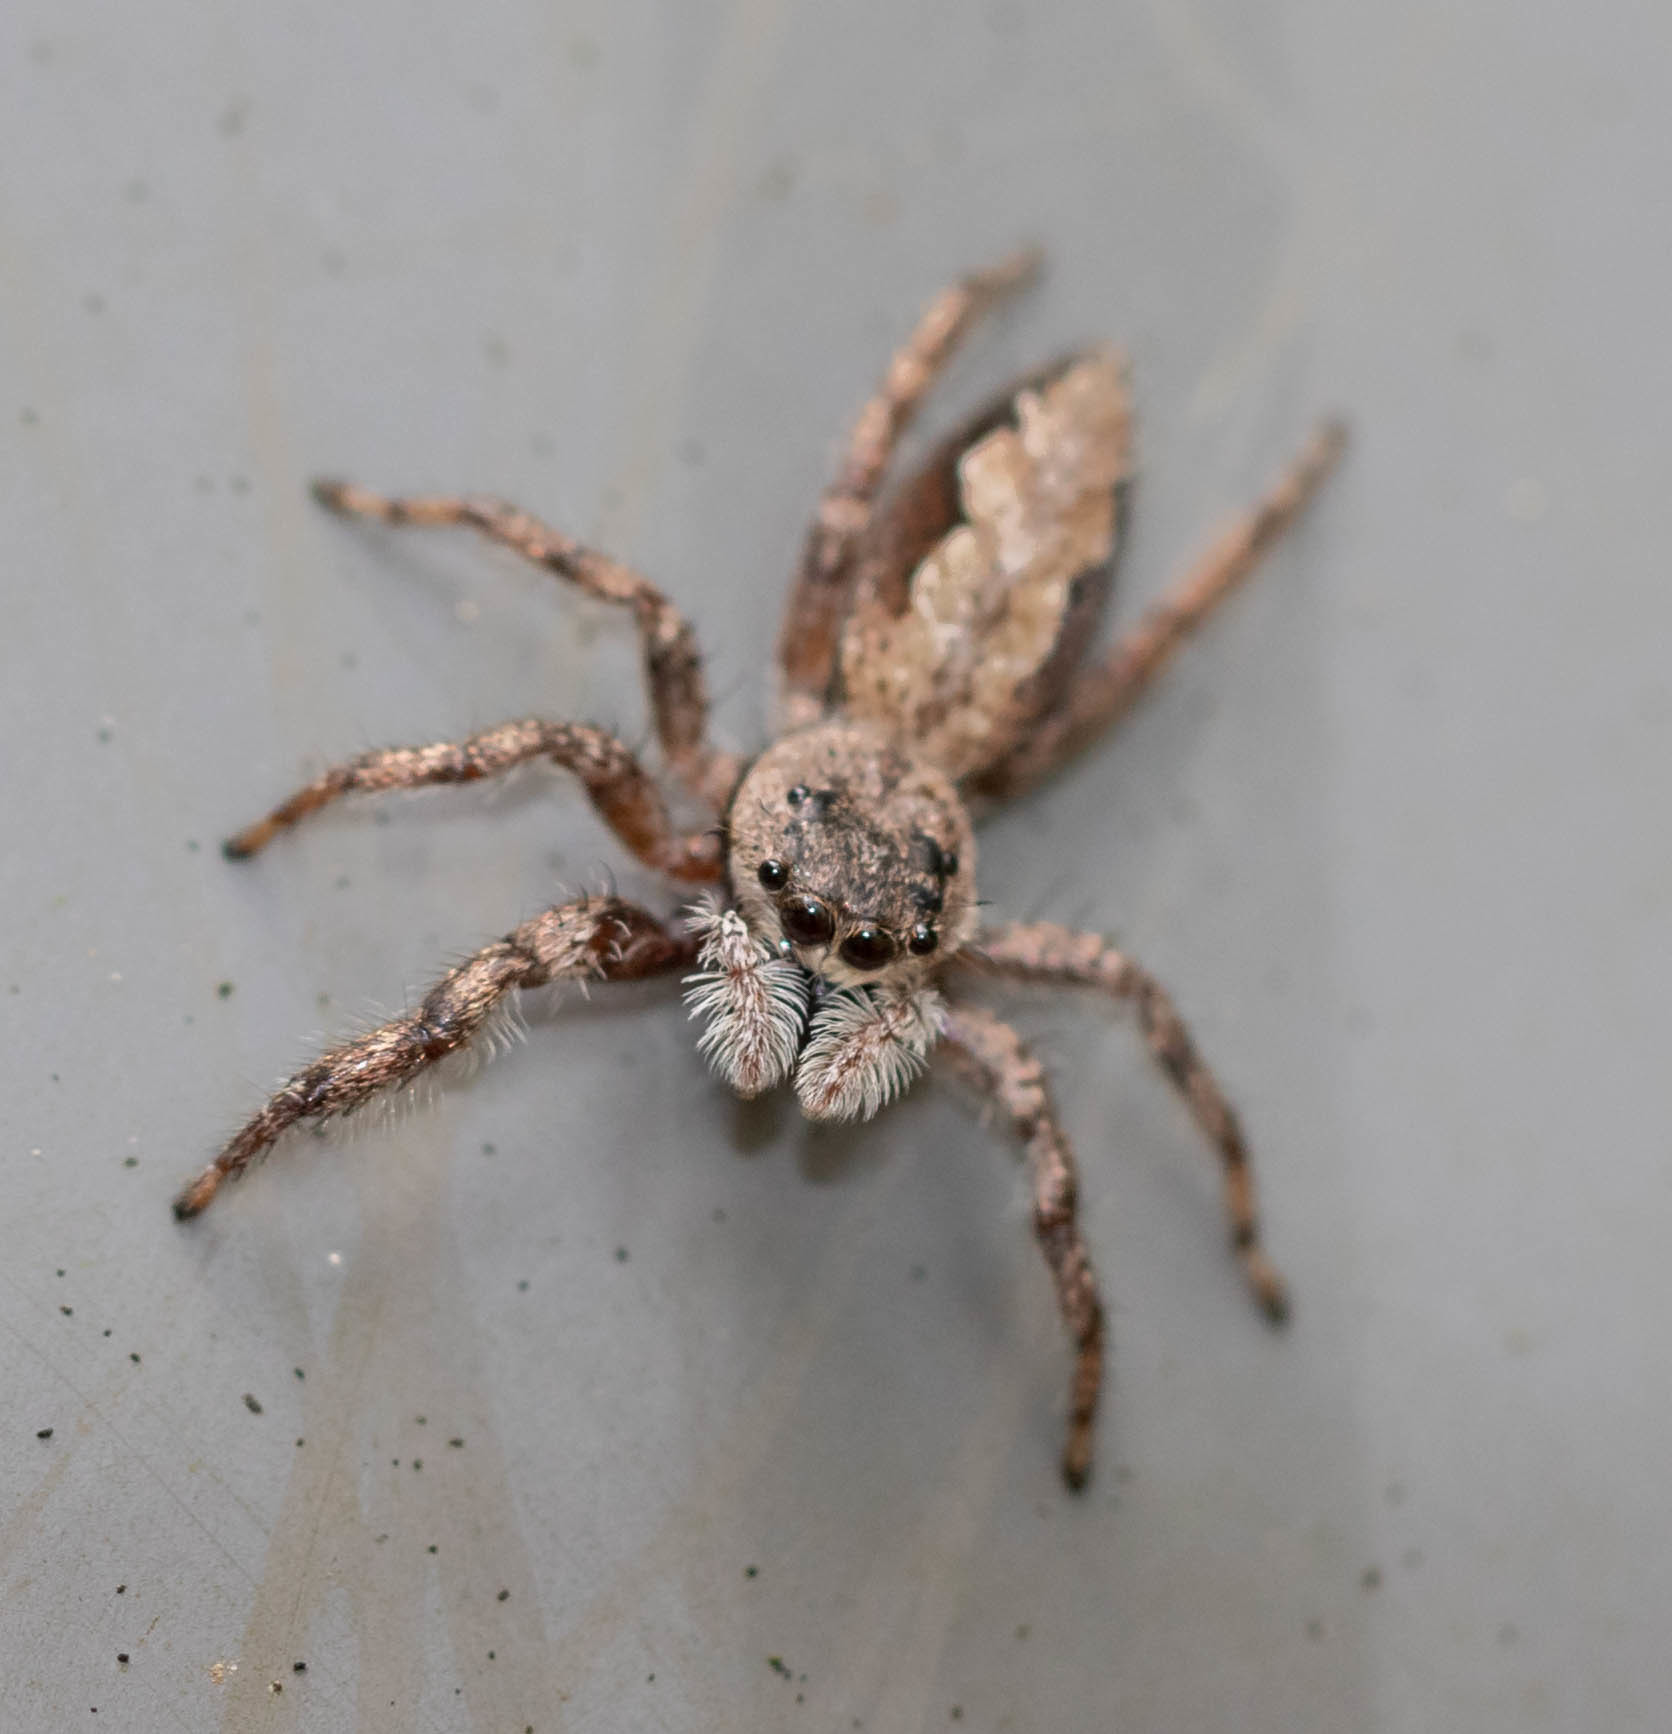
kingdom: Animalia
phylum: Arthropoda
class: Arachnida
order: Araneae
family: Salticidae
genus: Platycryptus
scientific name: Platycryptus undatus
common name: Tan jumping spider
